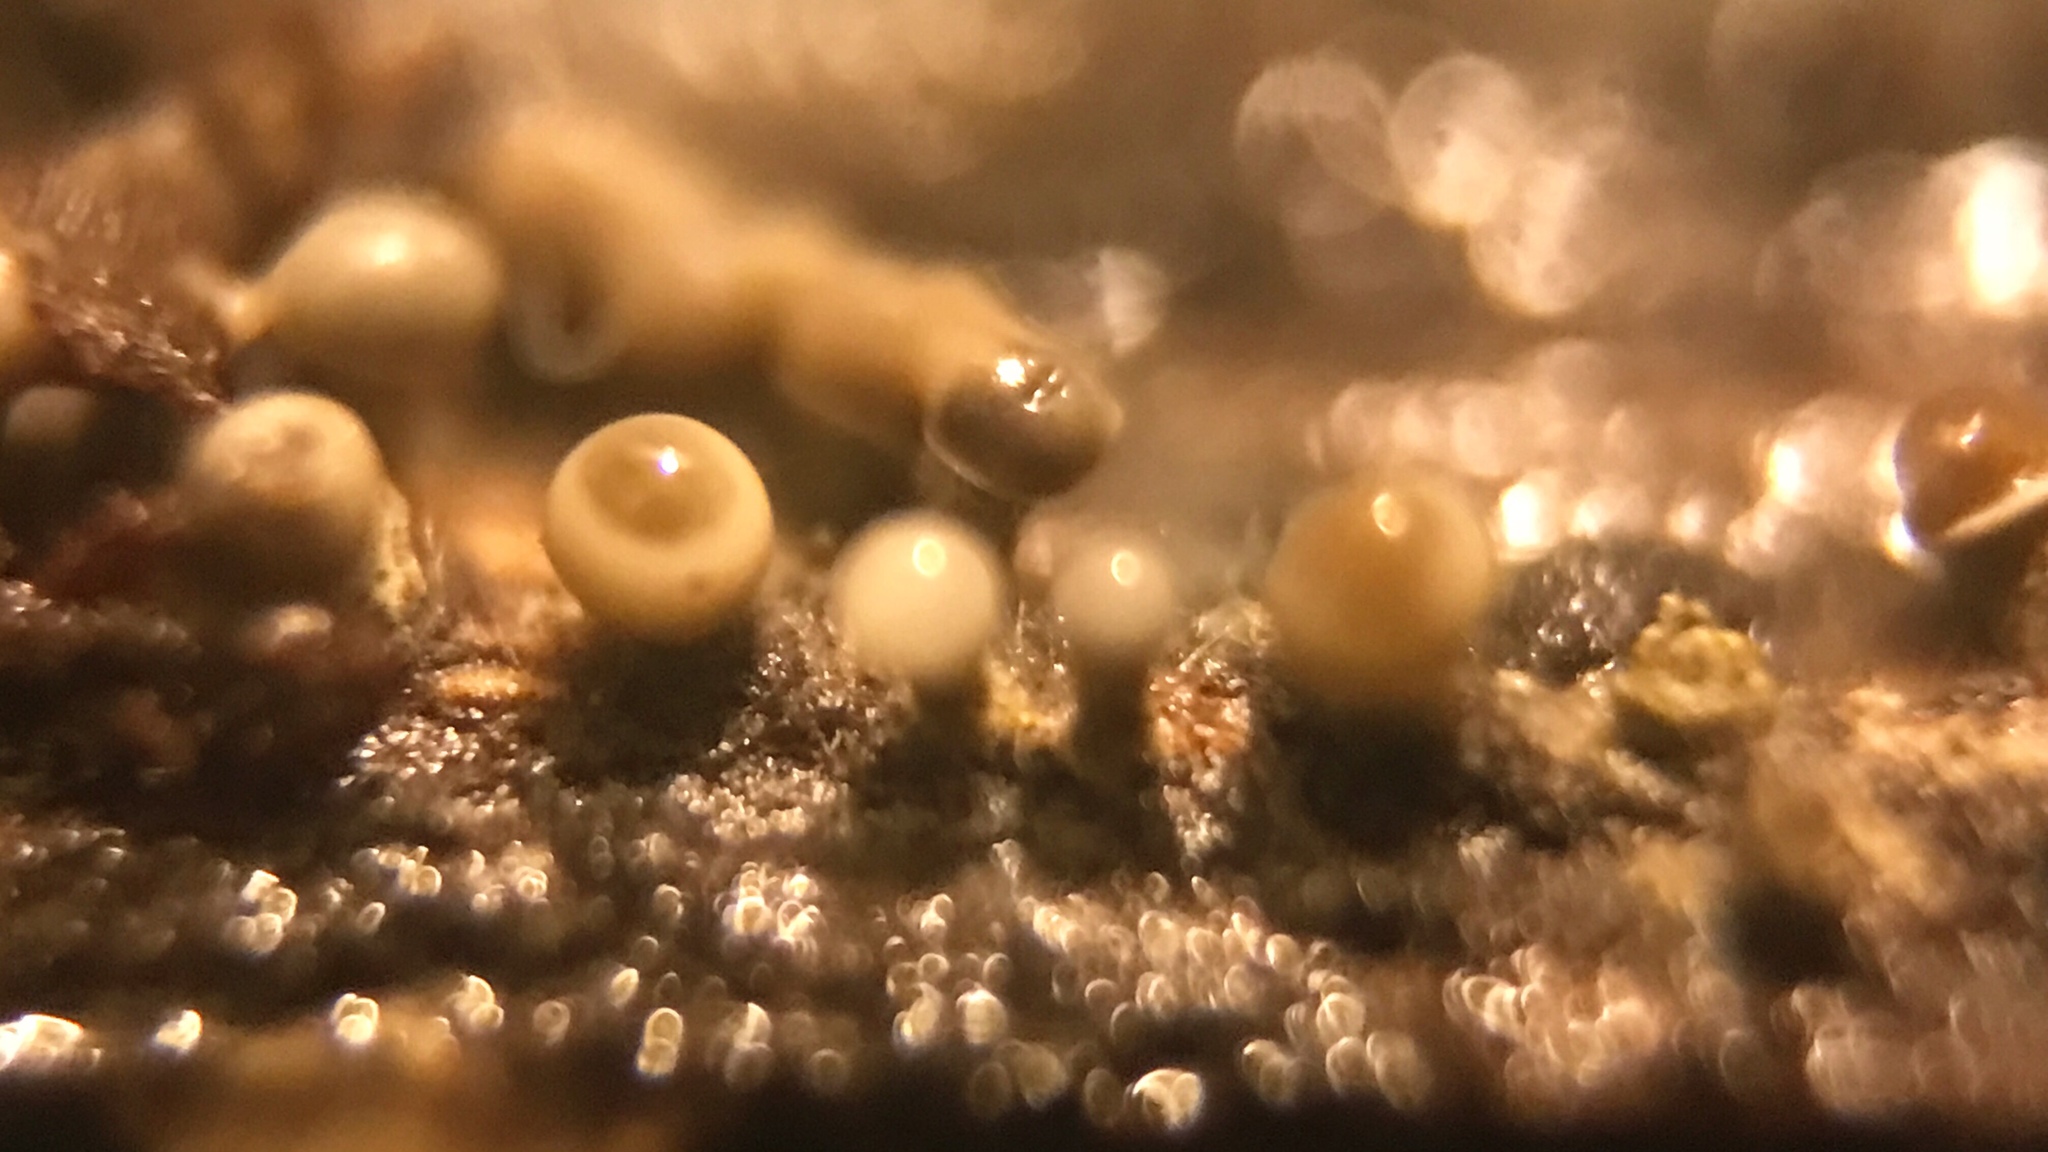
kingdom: Fungi
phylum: Ascomycota
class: Sordariomycetes
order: Hypocreales
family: Hypocreaceae
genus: Trichoderma
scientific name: Trichoderma flavipes
